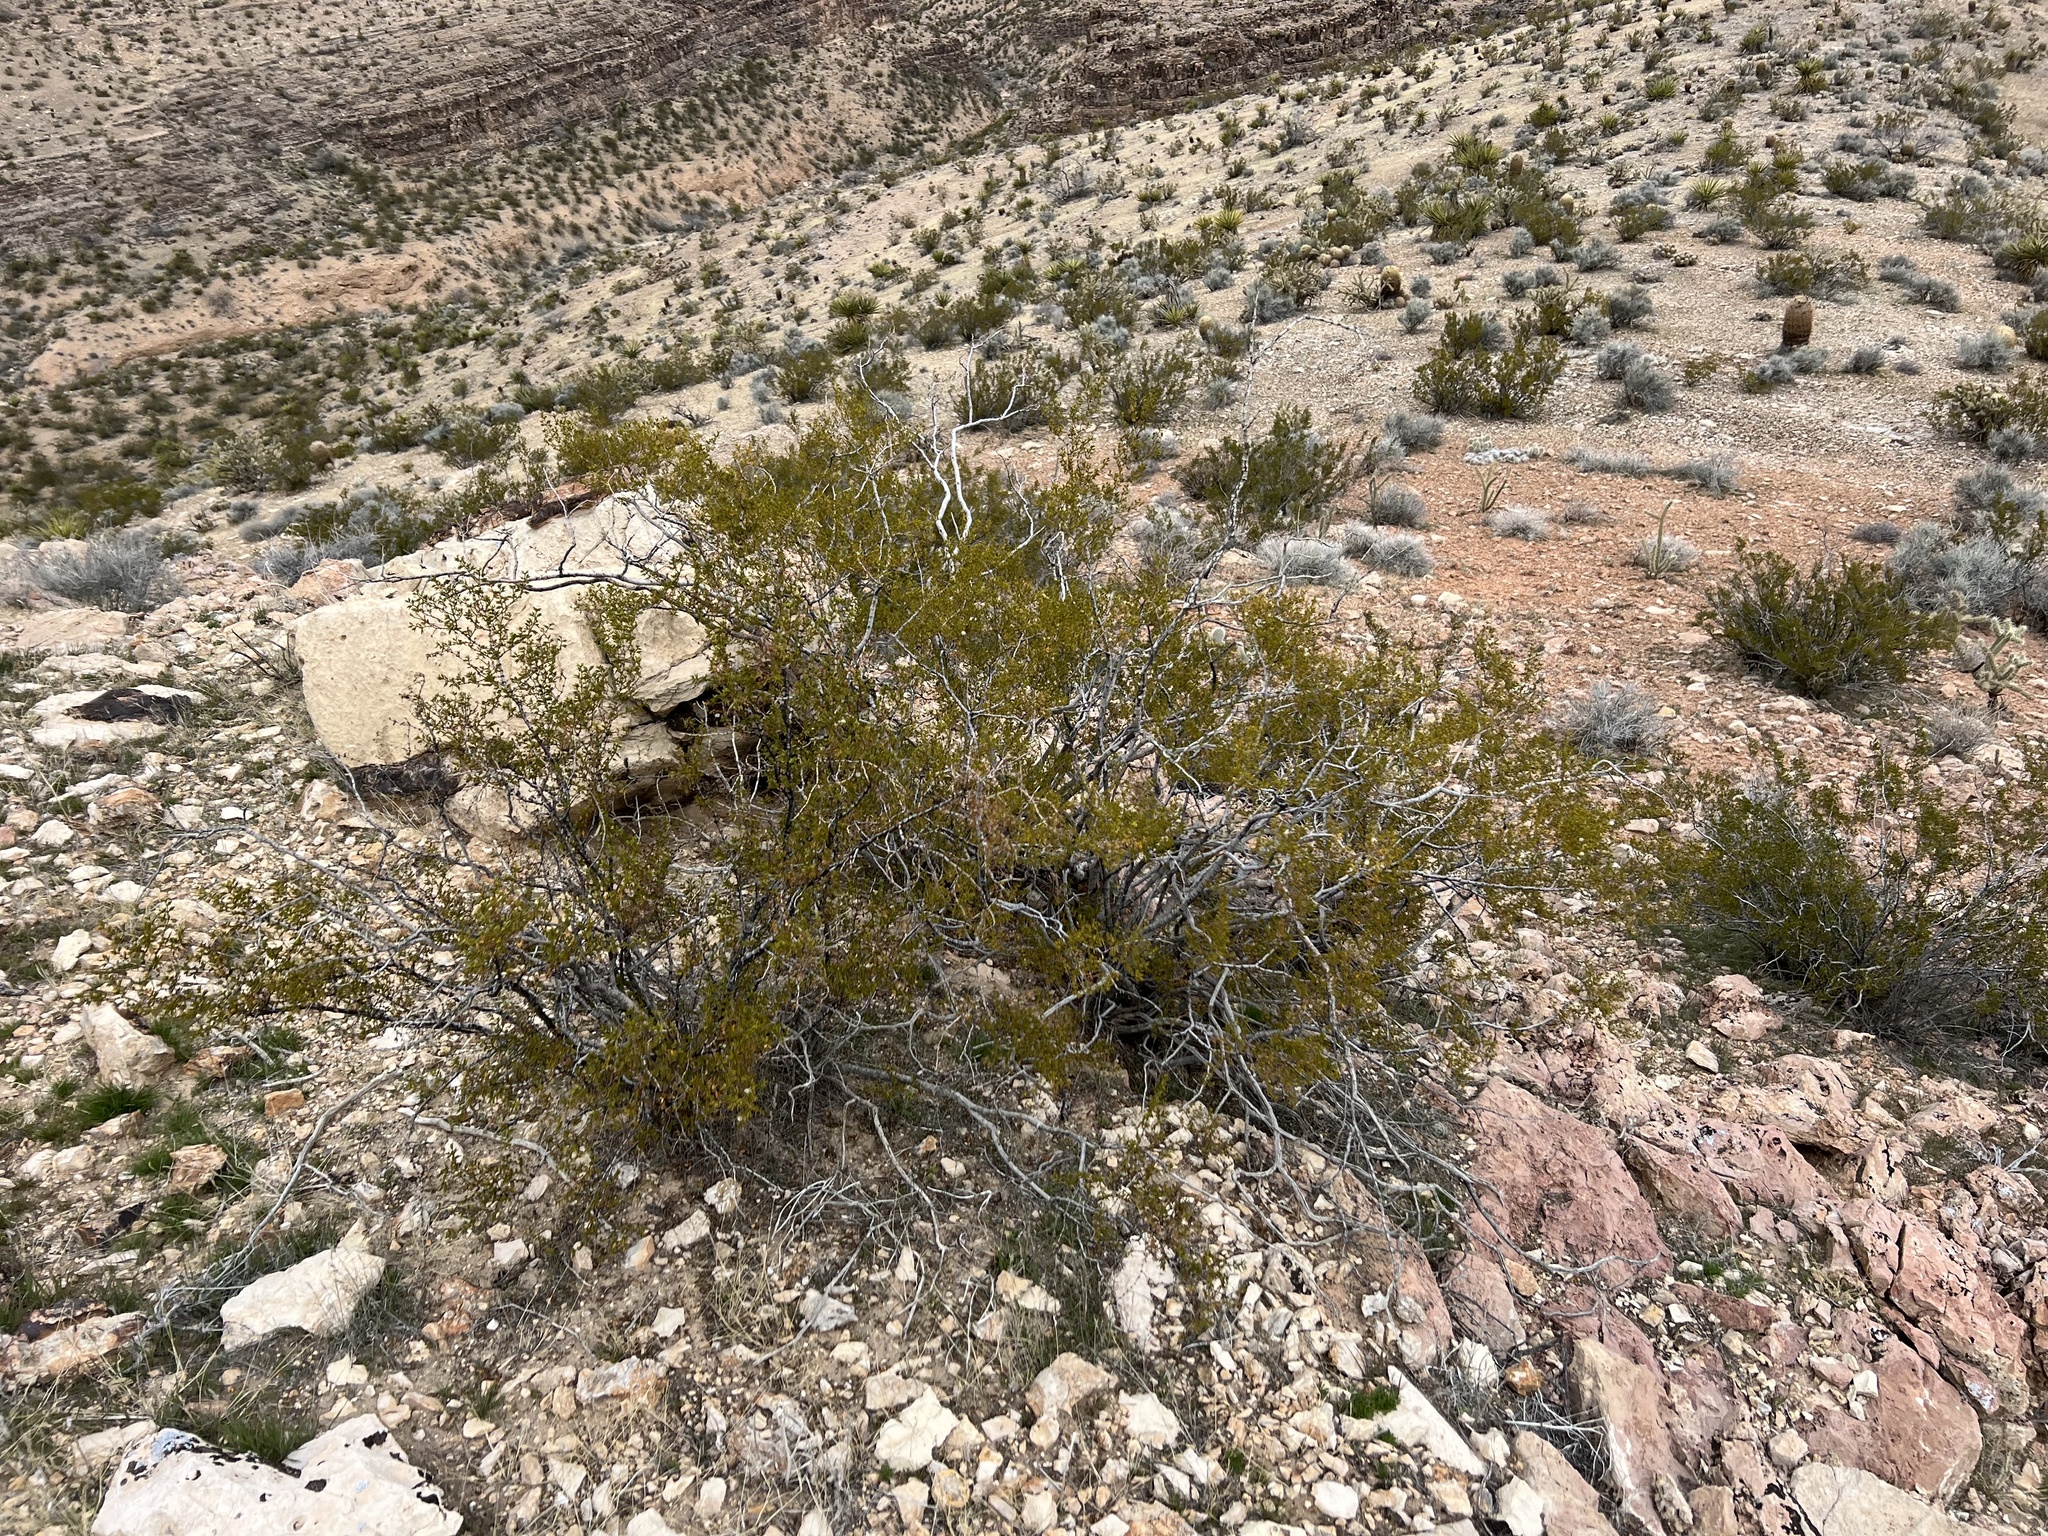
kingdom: Plantae
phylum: Tracheophyta
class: Magnoliopsida
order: Zygophyllales
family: Zygophyllaceae
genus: Larrea
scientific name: Larrea tridentata
